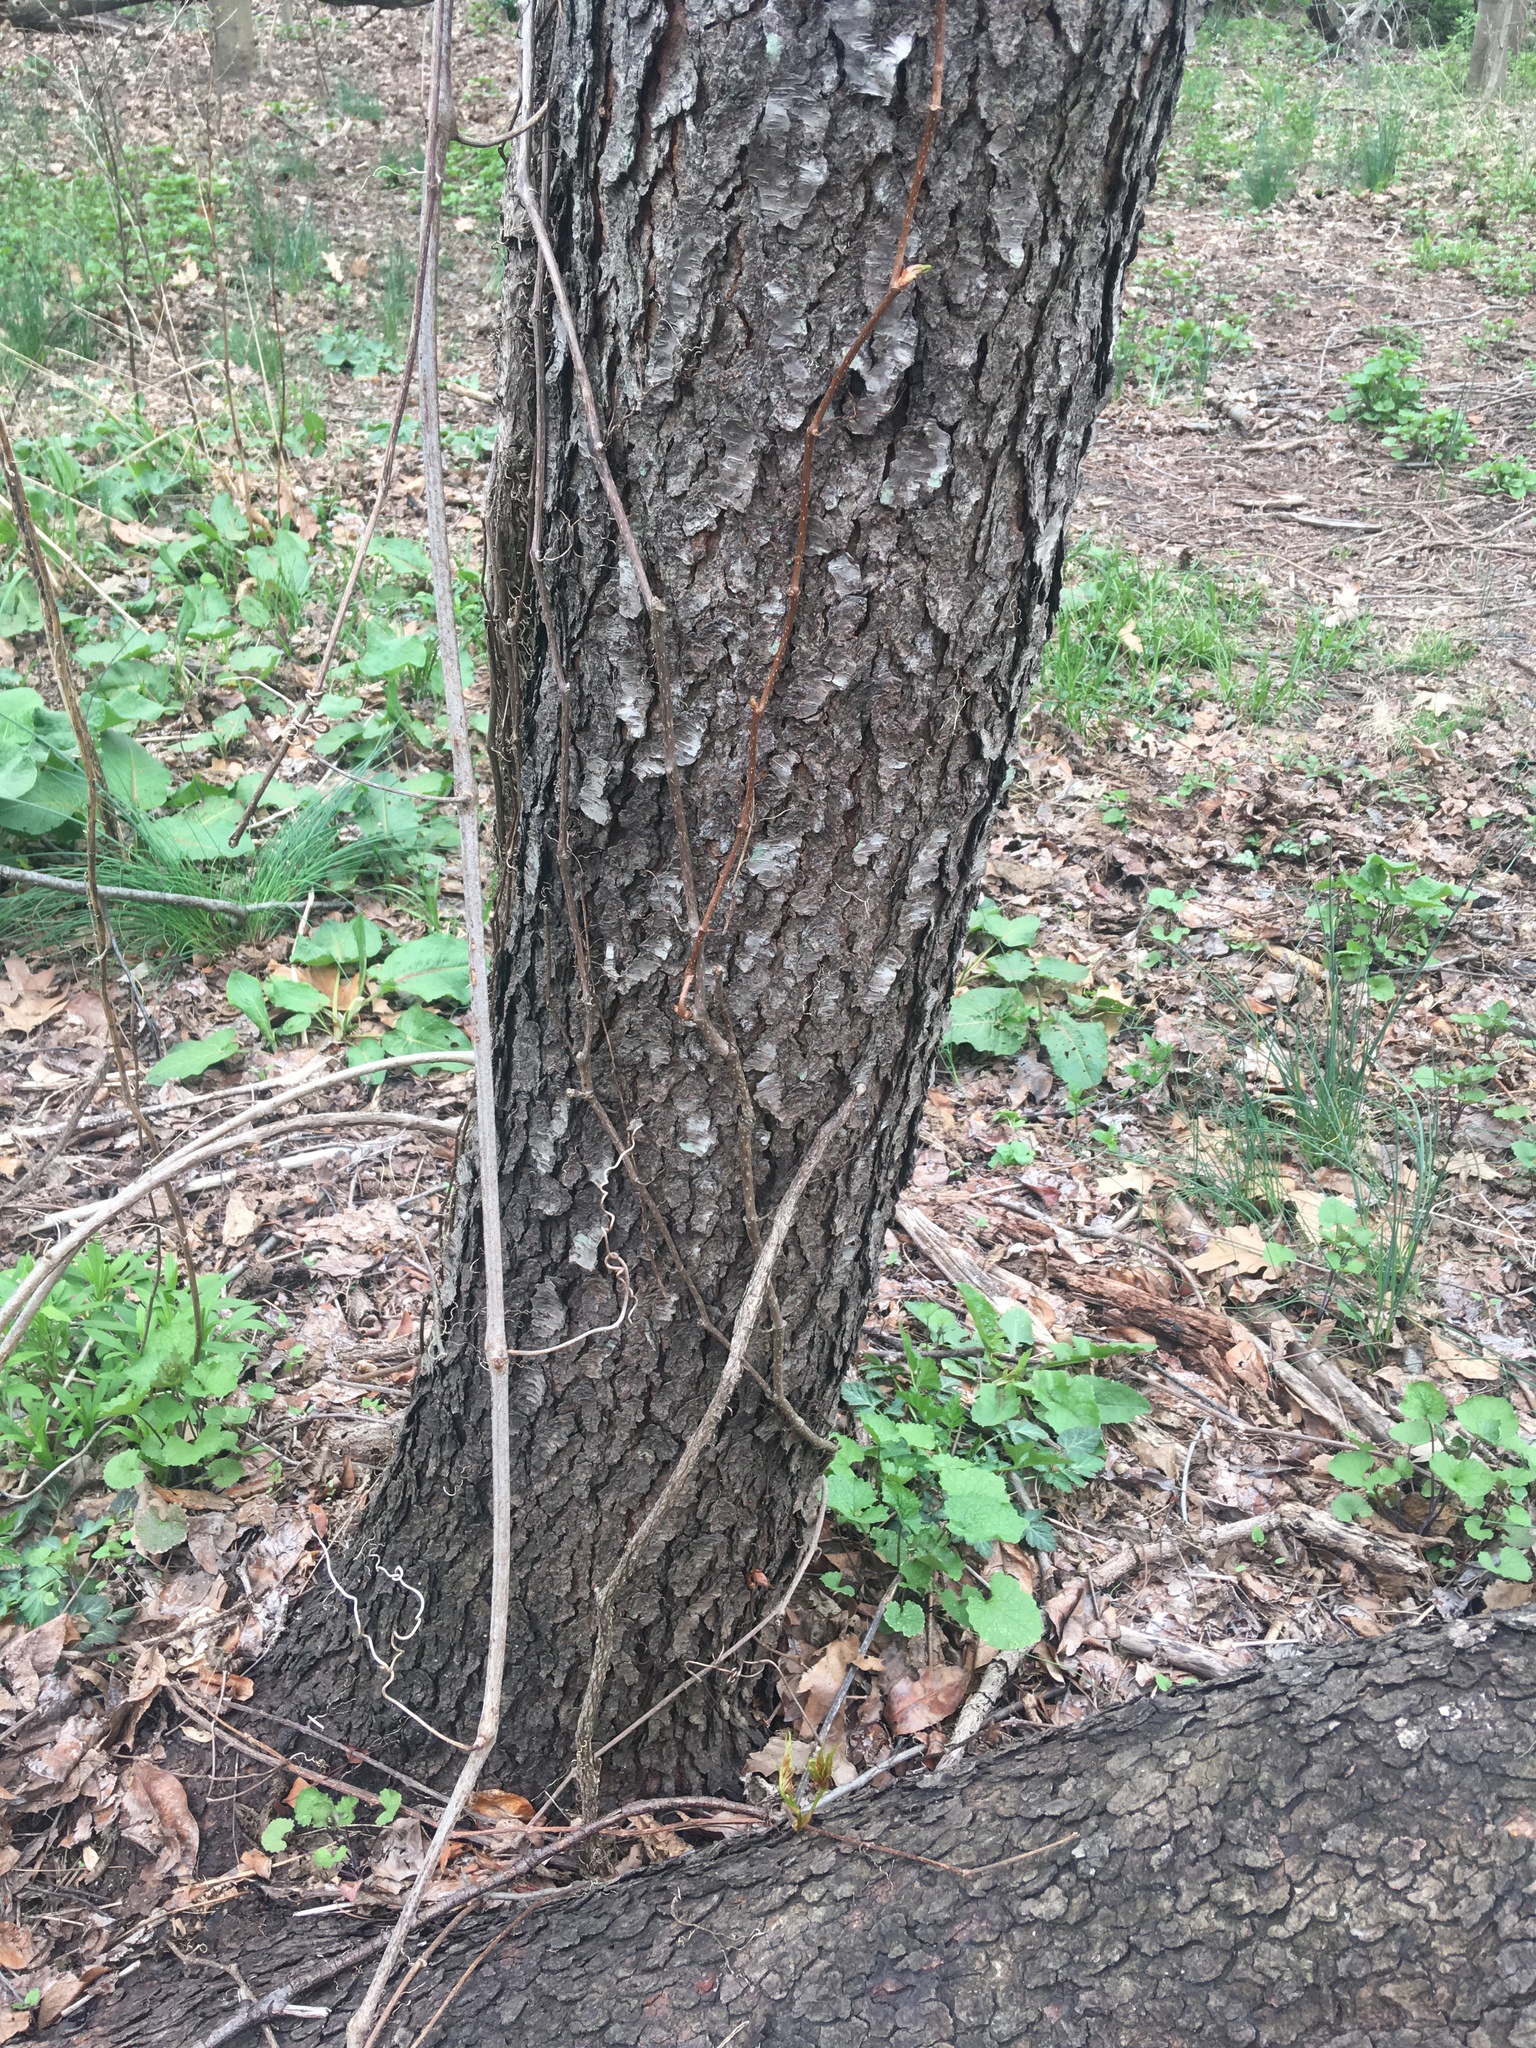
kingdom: Plantae
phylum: Tracheophyta
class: Magnoliopsida
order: Rosales
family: Rosaceae
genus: Prunus
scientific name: Prunus serotina
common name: Black cherry
